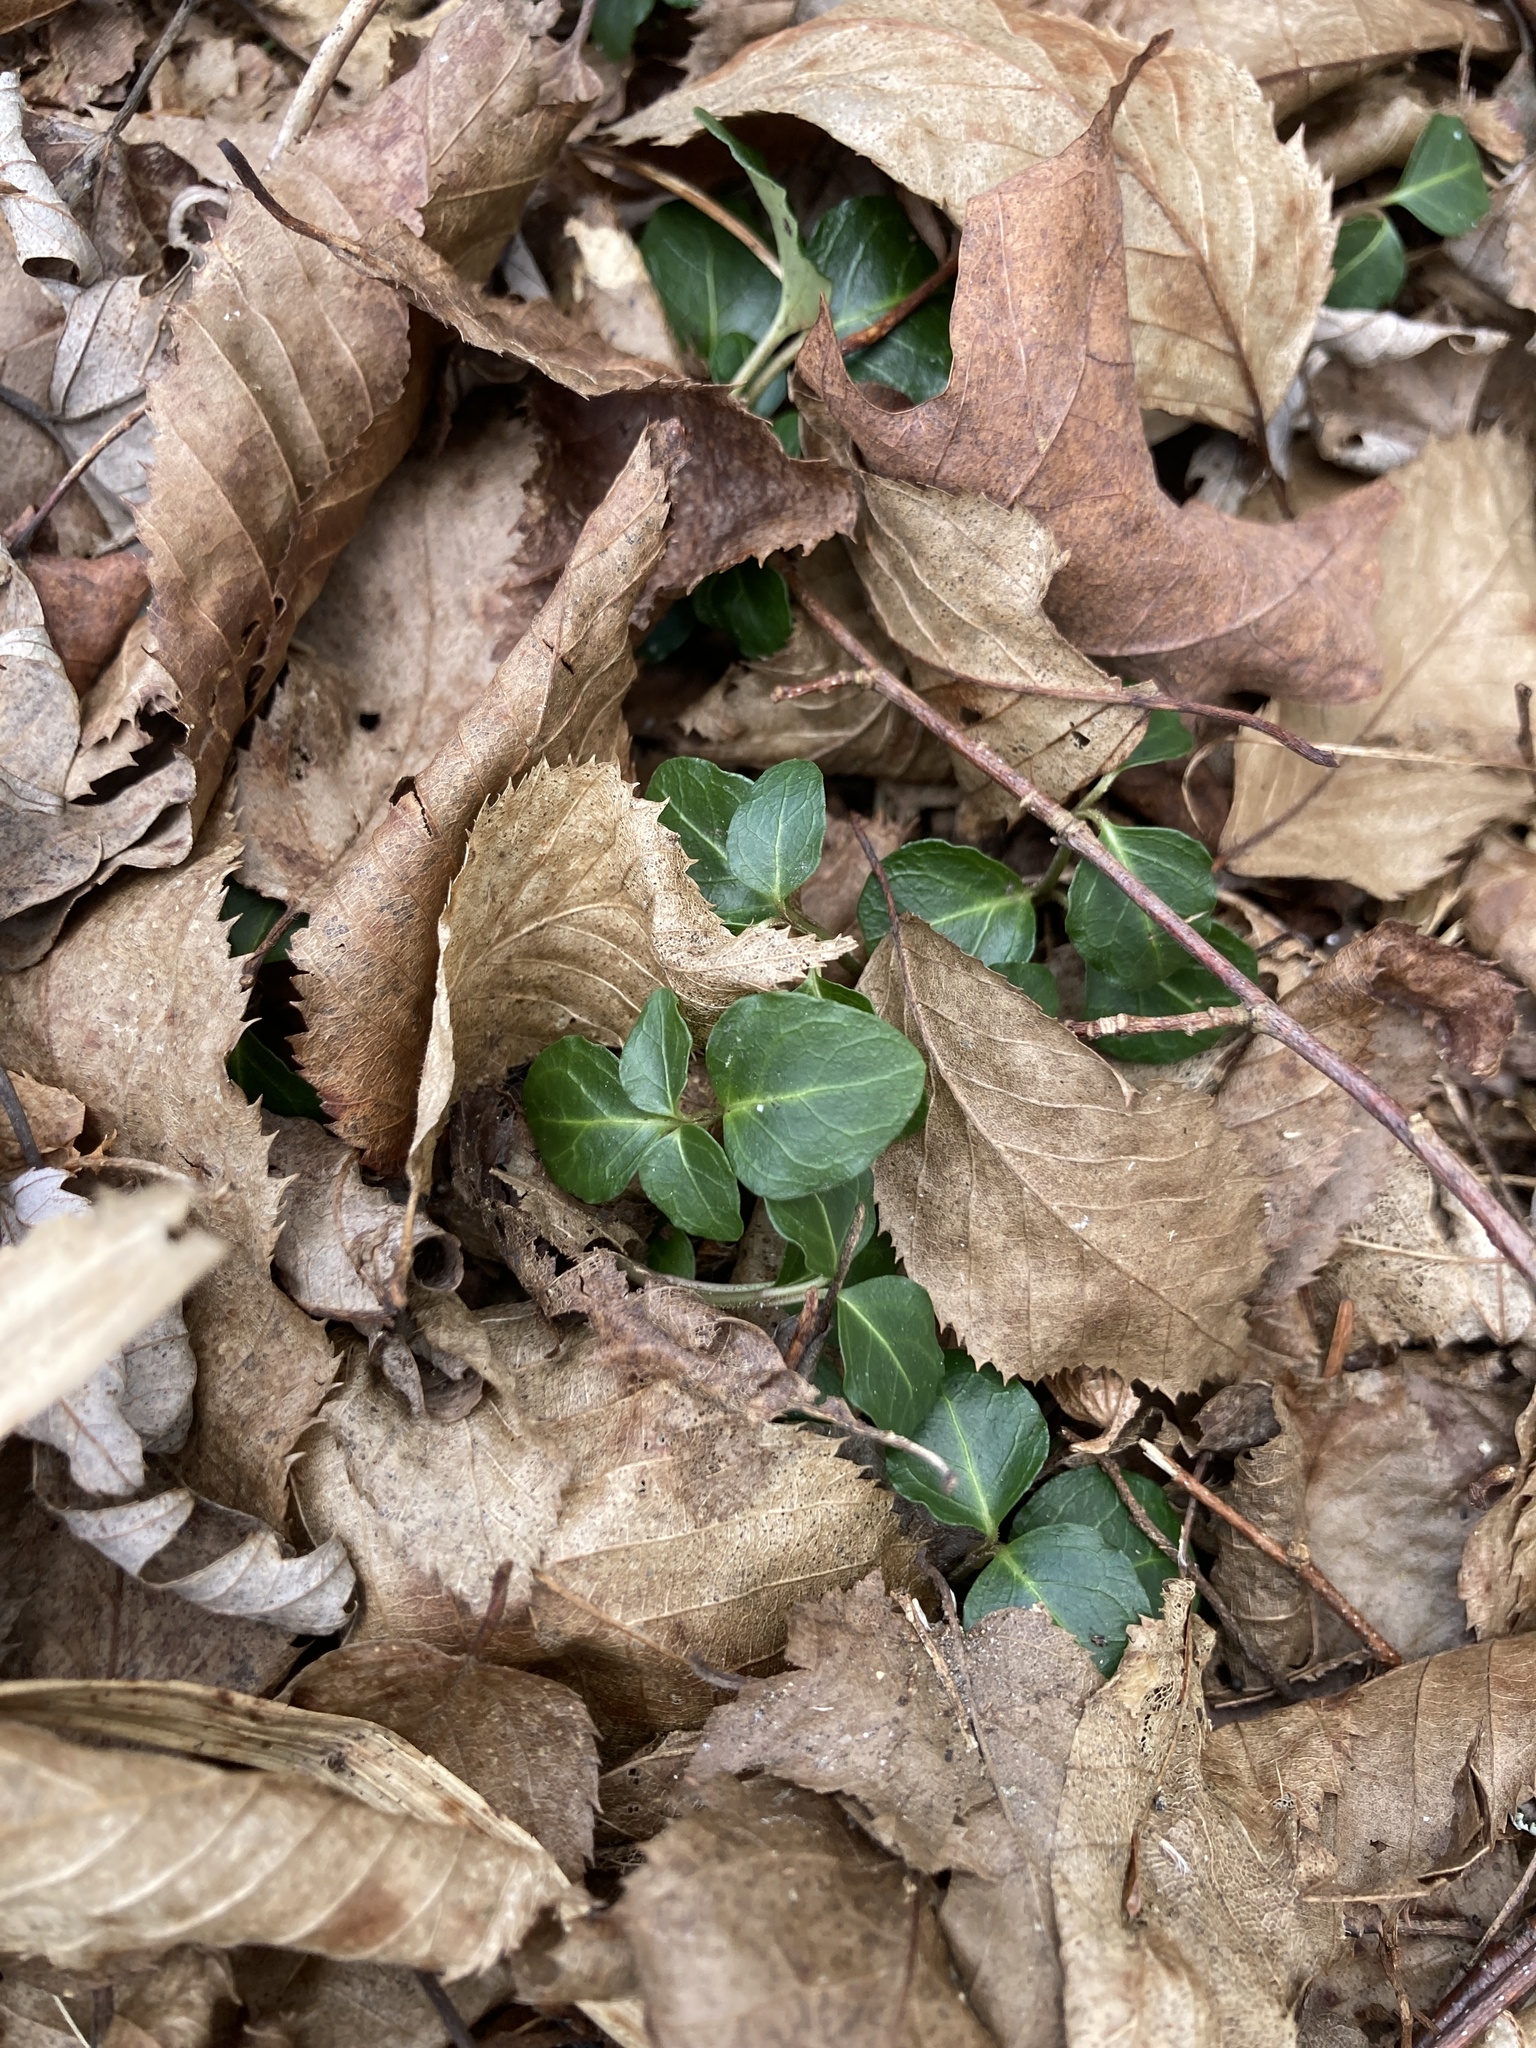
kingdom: Plantae
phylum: Tracheophyta
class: Magnoliopsida
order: Gentianales
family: Rubiaceae
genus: Mitchella
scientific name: Mitchella repens
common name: Partridge-berry
